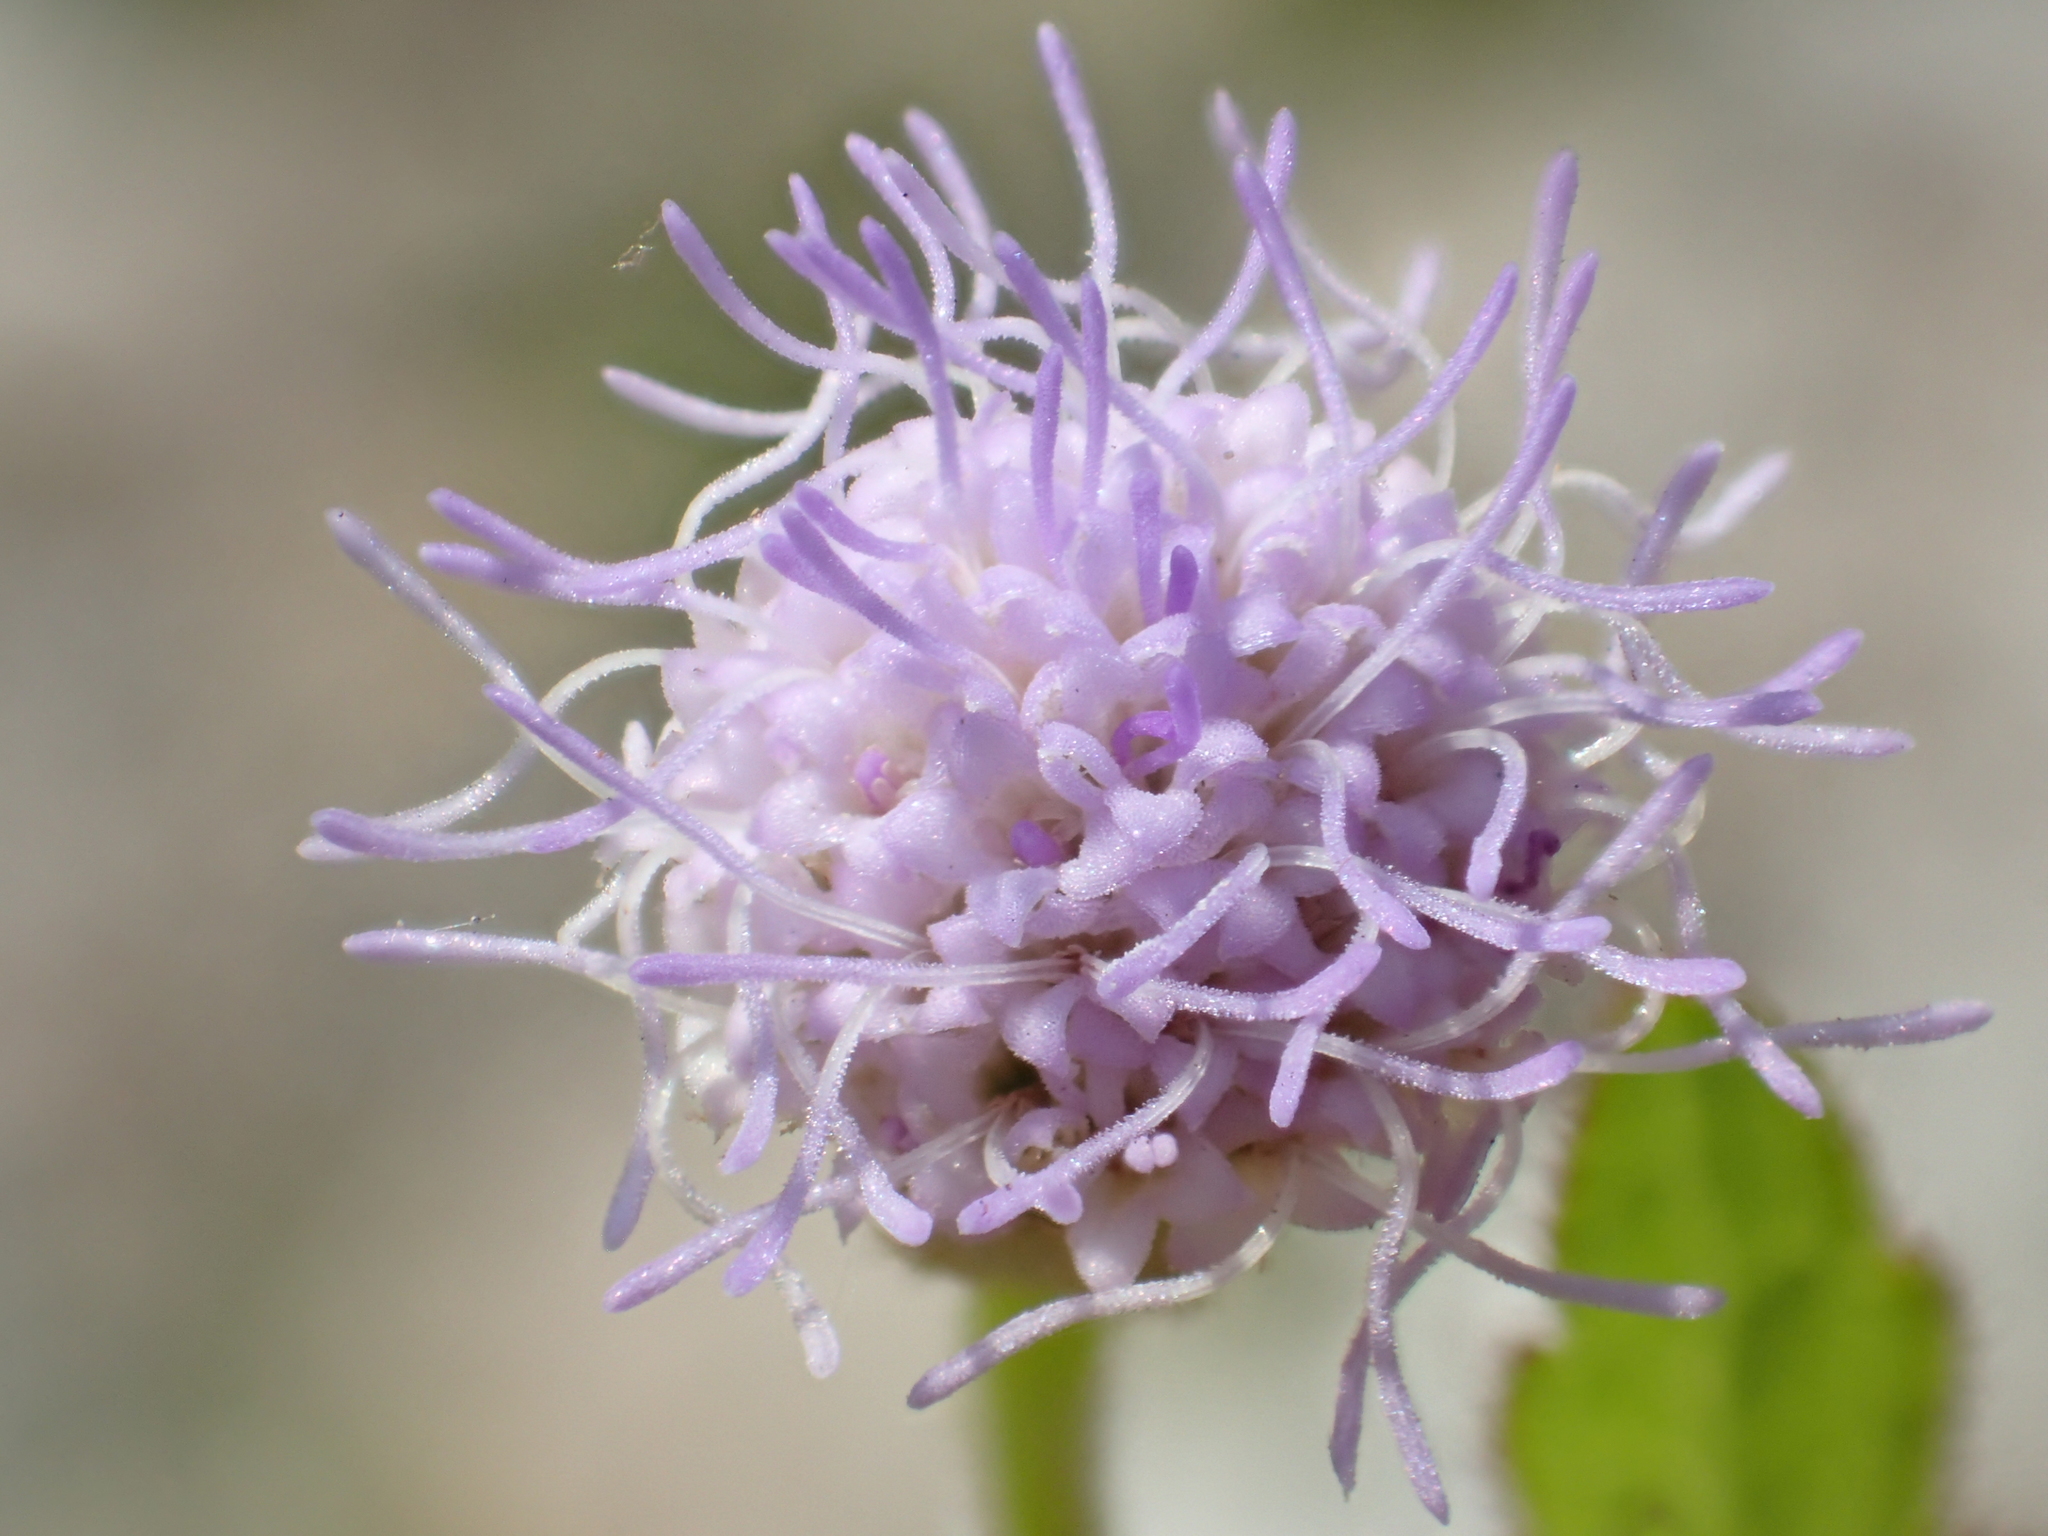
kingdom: Plantae
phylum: Tracheophyta
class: Magnoliopsida
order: Asterales
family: Asteraceae
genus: Praxelis
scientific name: Praxelis clematidea
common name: Praxelis
